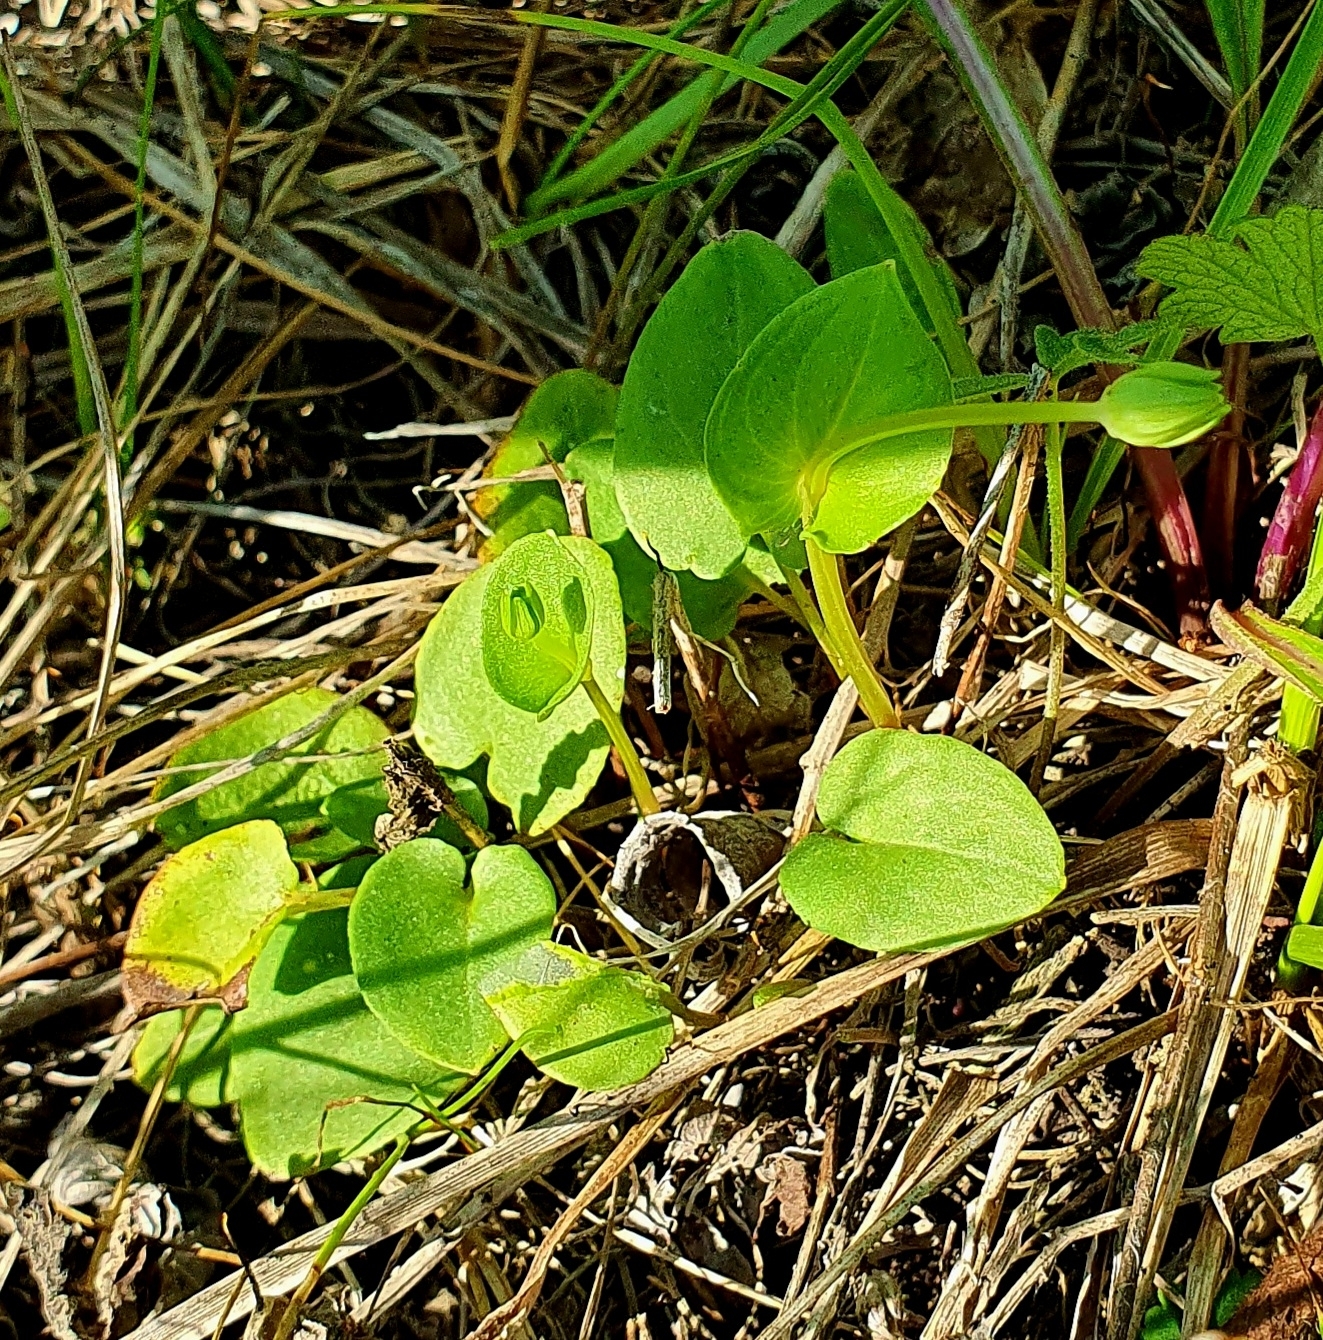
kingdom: Plantae
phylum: Tracheophyta
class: Magnoliopsida
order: Celastrales
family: Parnassiaceae
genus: Parnassia
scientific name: Parnassia palustris
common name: Grass-of-parnassus
